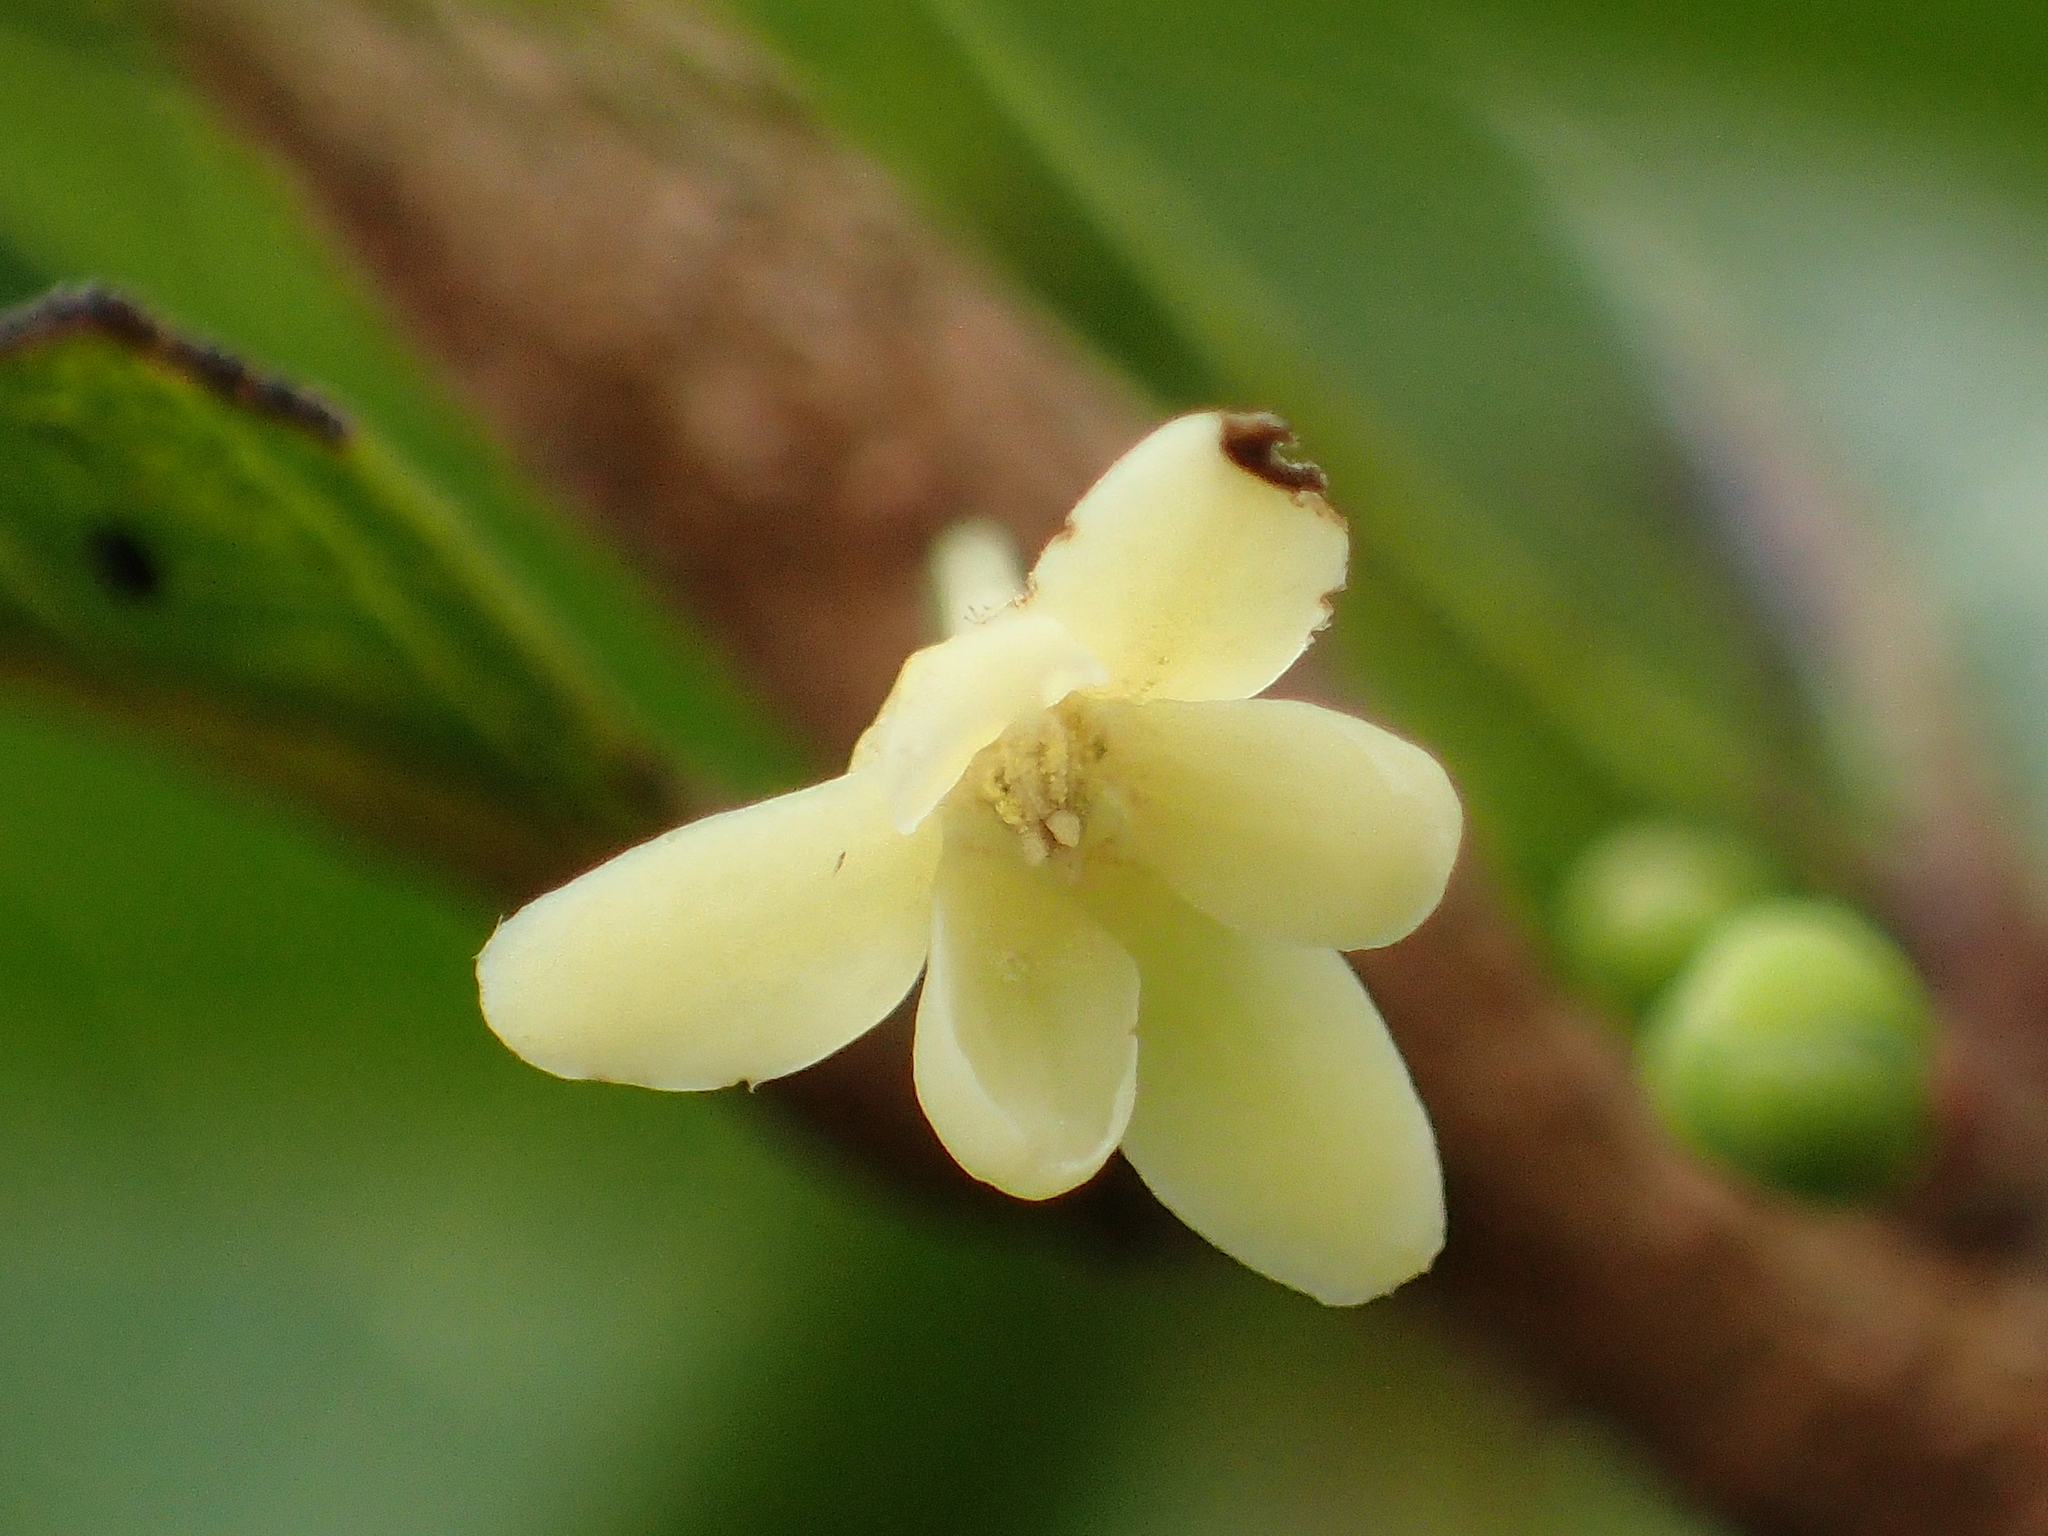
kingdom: Plantae
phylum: Tracheophyta
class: Magnoliopsida
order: Malpighiales
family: Phyllanthaceae
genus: Glochidion
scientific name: Glochidion rubrum
